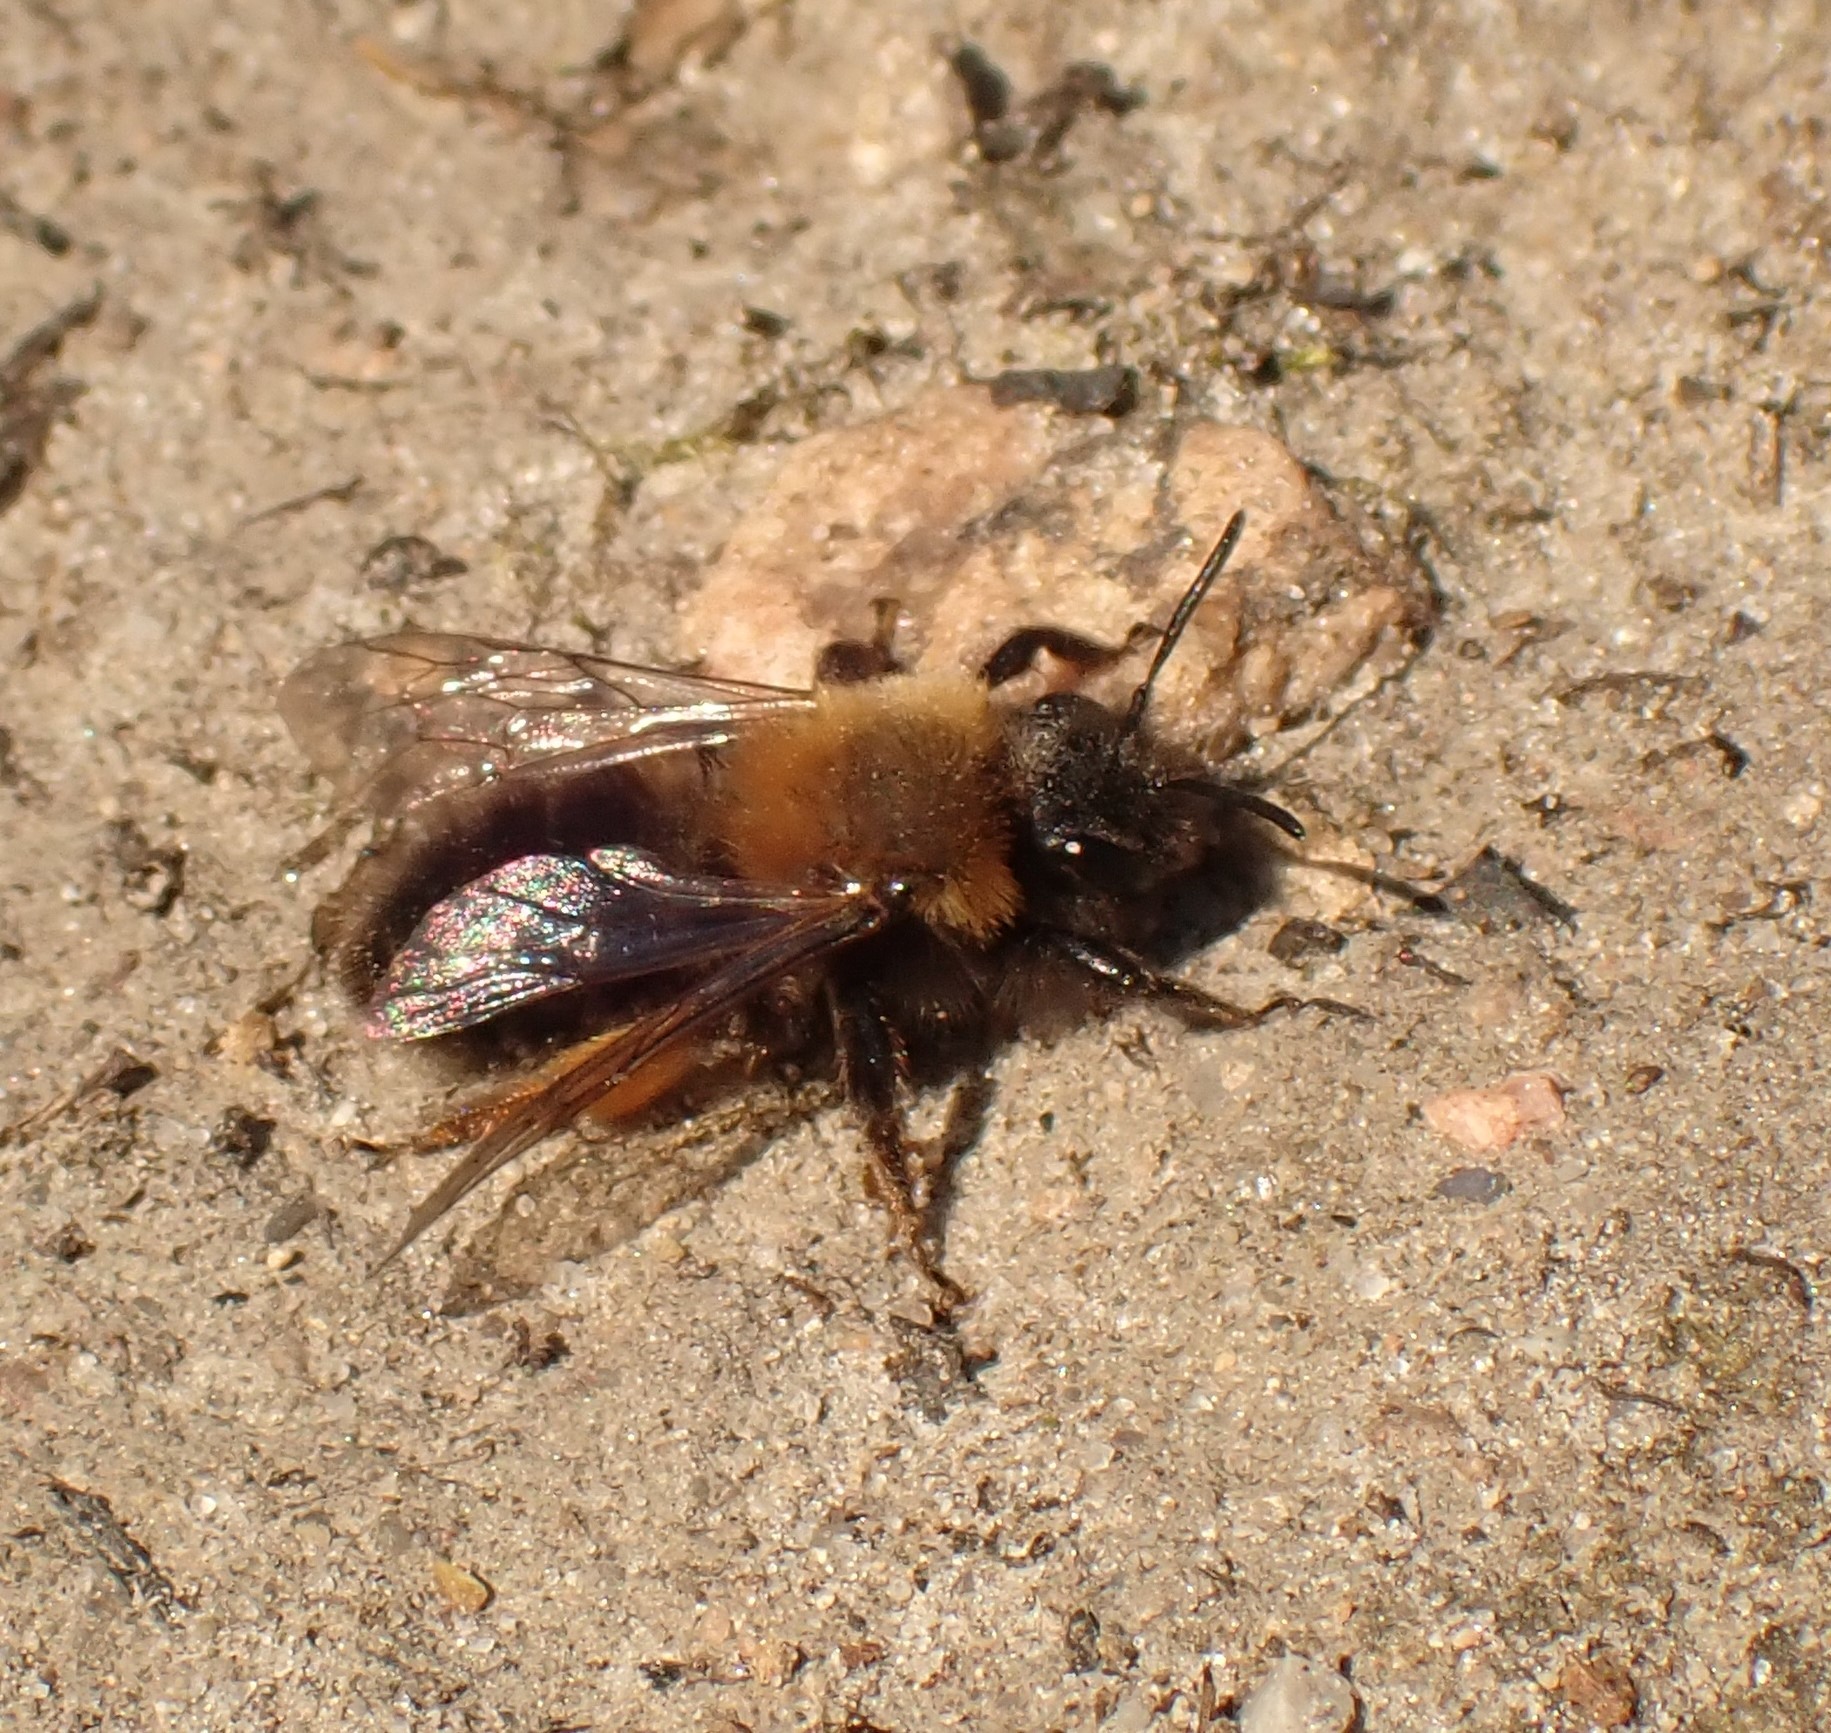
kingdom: Animalia
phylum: Arthropoda
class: Insecta
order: Hymenoptera
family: Andrenidae
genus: Andrena
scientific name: Andrena clarkella
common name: Clarke's mining bee
